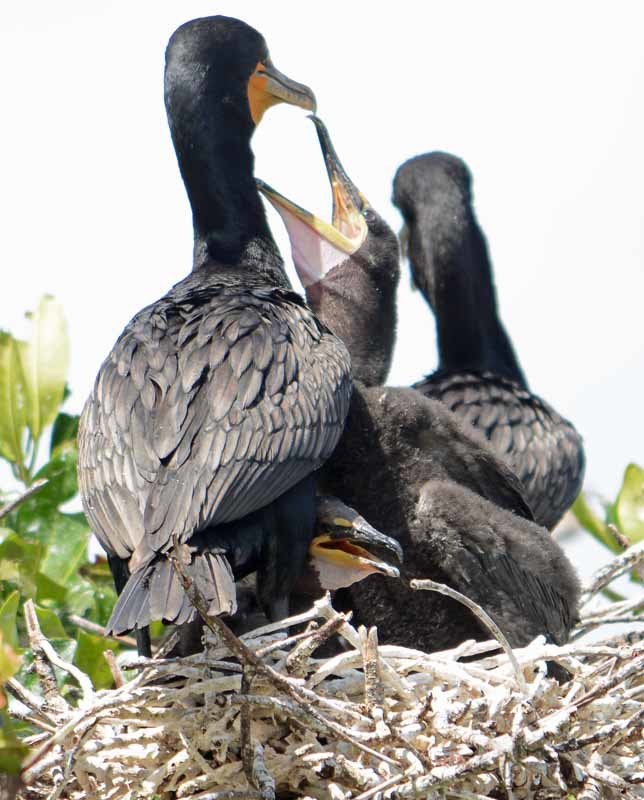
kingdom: Animalia
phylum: Chordata
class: Aves
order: Suliformes
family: Phalacrocoracidae
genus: Phalacrocorax
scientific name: Phalacrocorax auritus
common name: Double-crested cormorant
